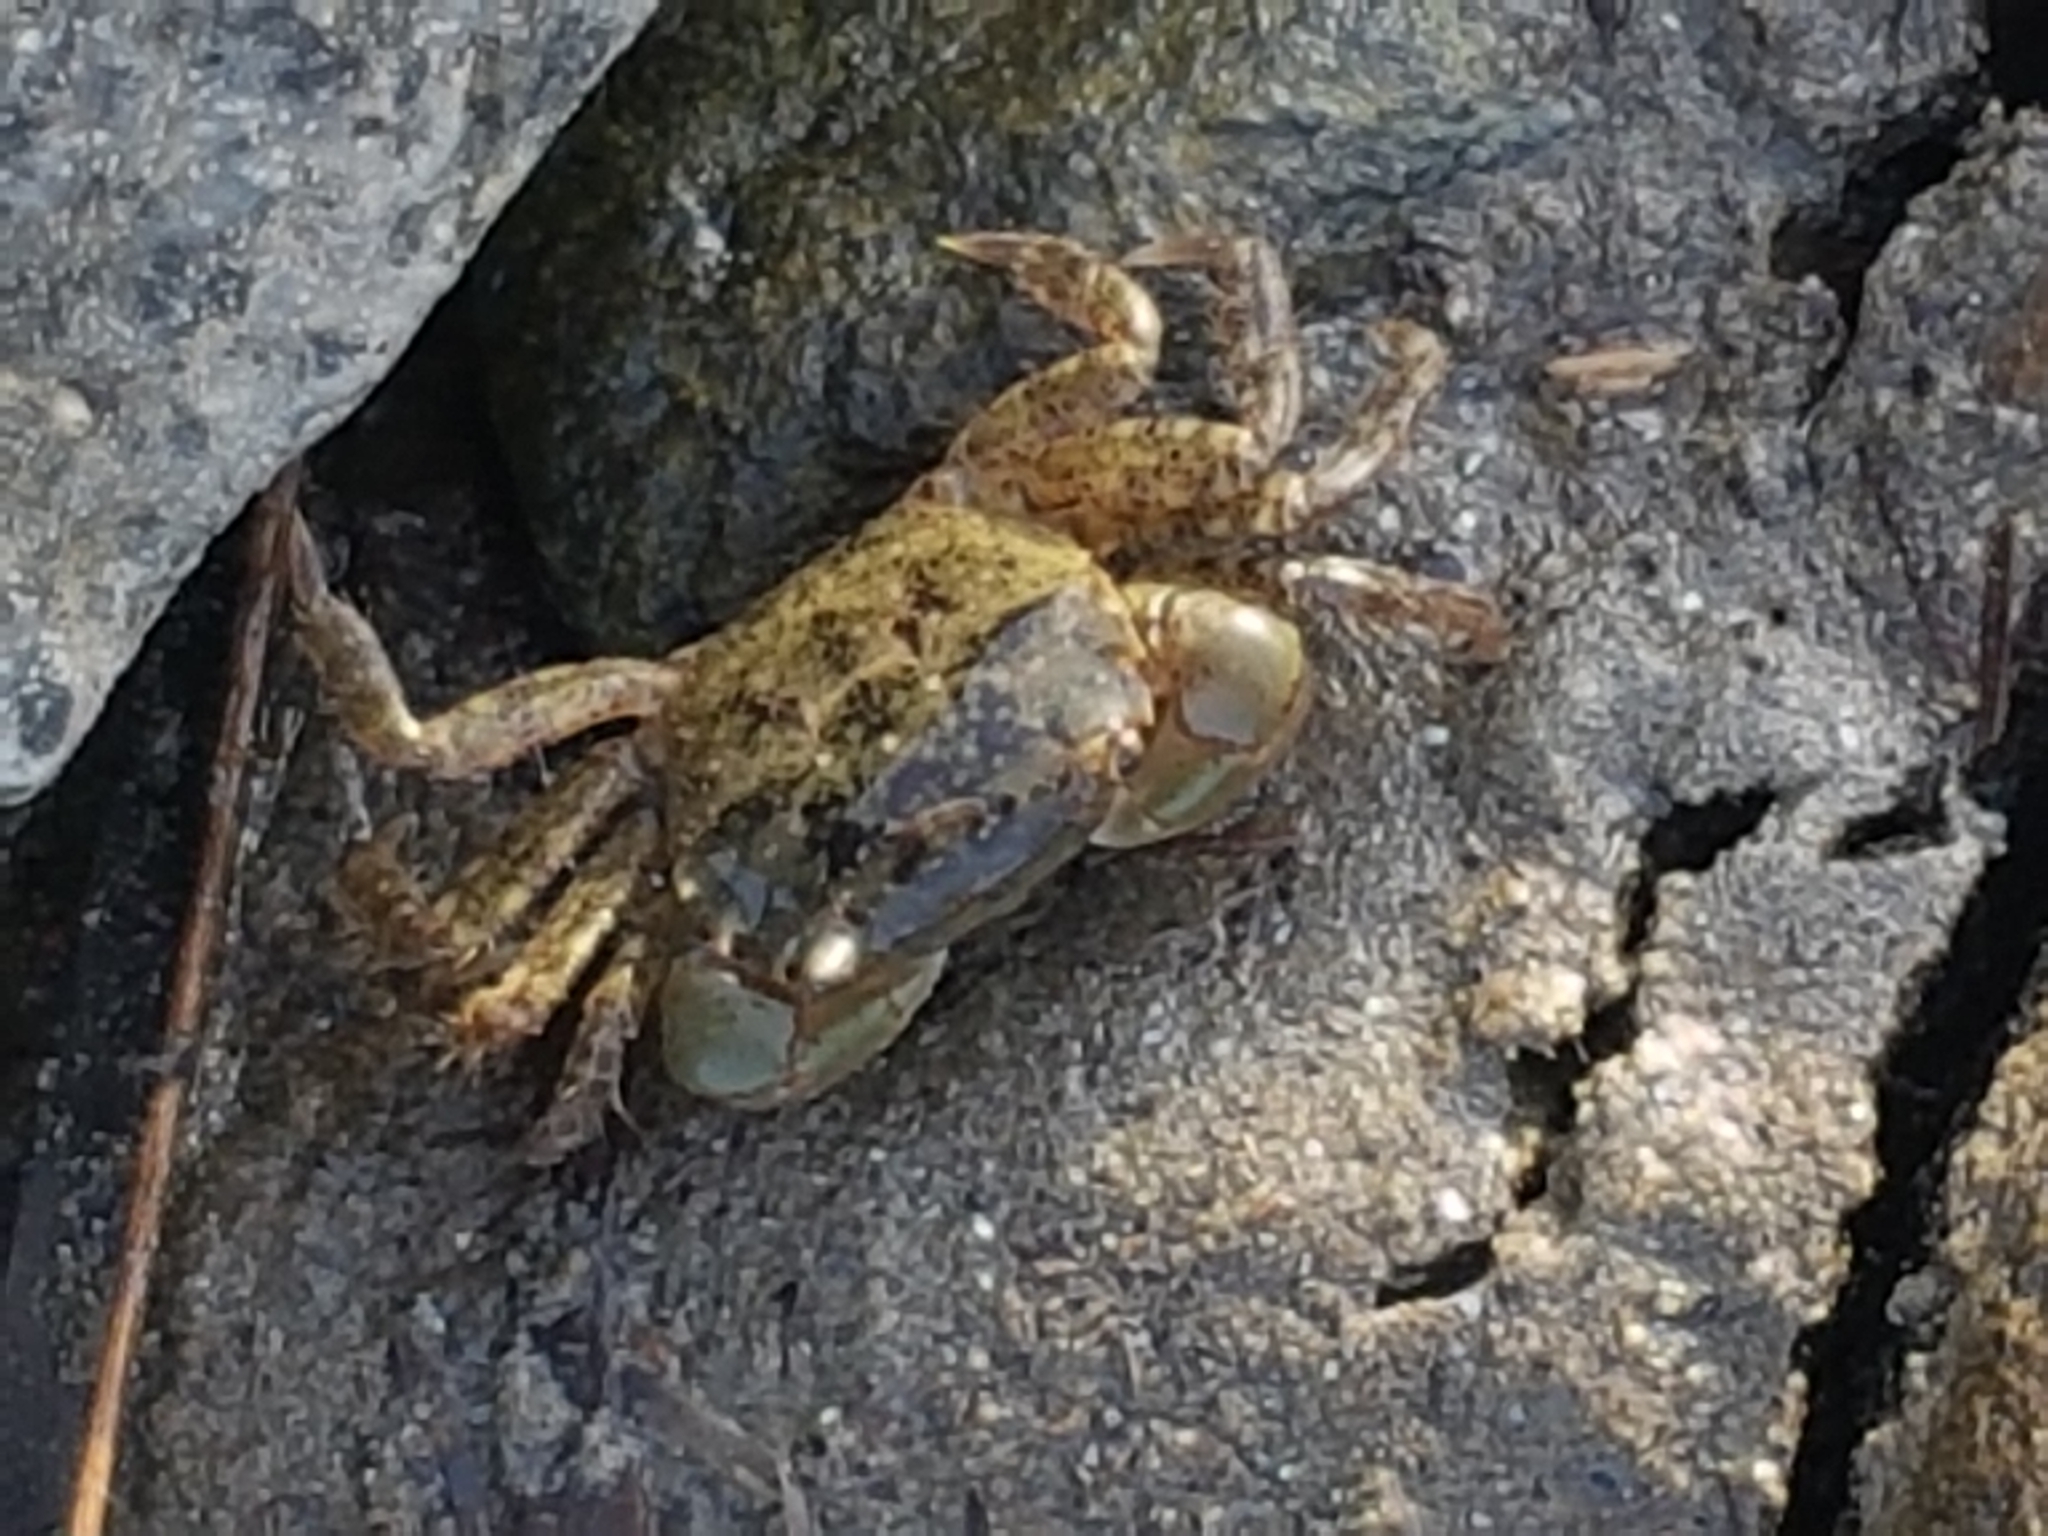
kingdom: Animalia
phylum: Arthropoda
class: Malacostraca
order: Decapoda
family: Varunidae
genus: Hemigrapsus
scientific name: Hemigrapsus oregonensis
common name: Yellow shore crab
